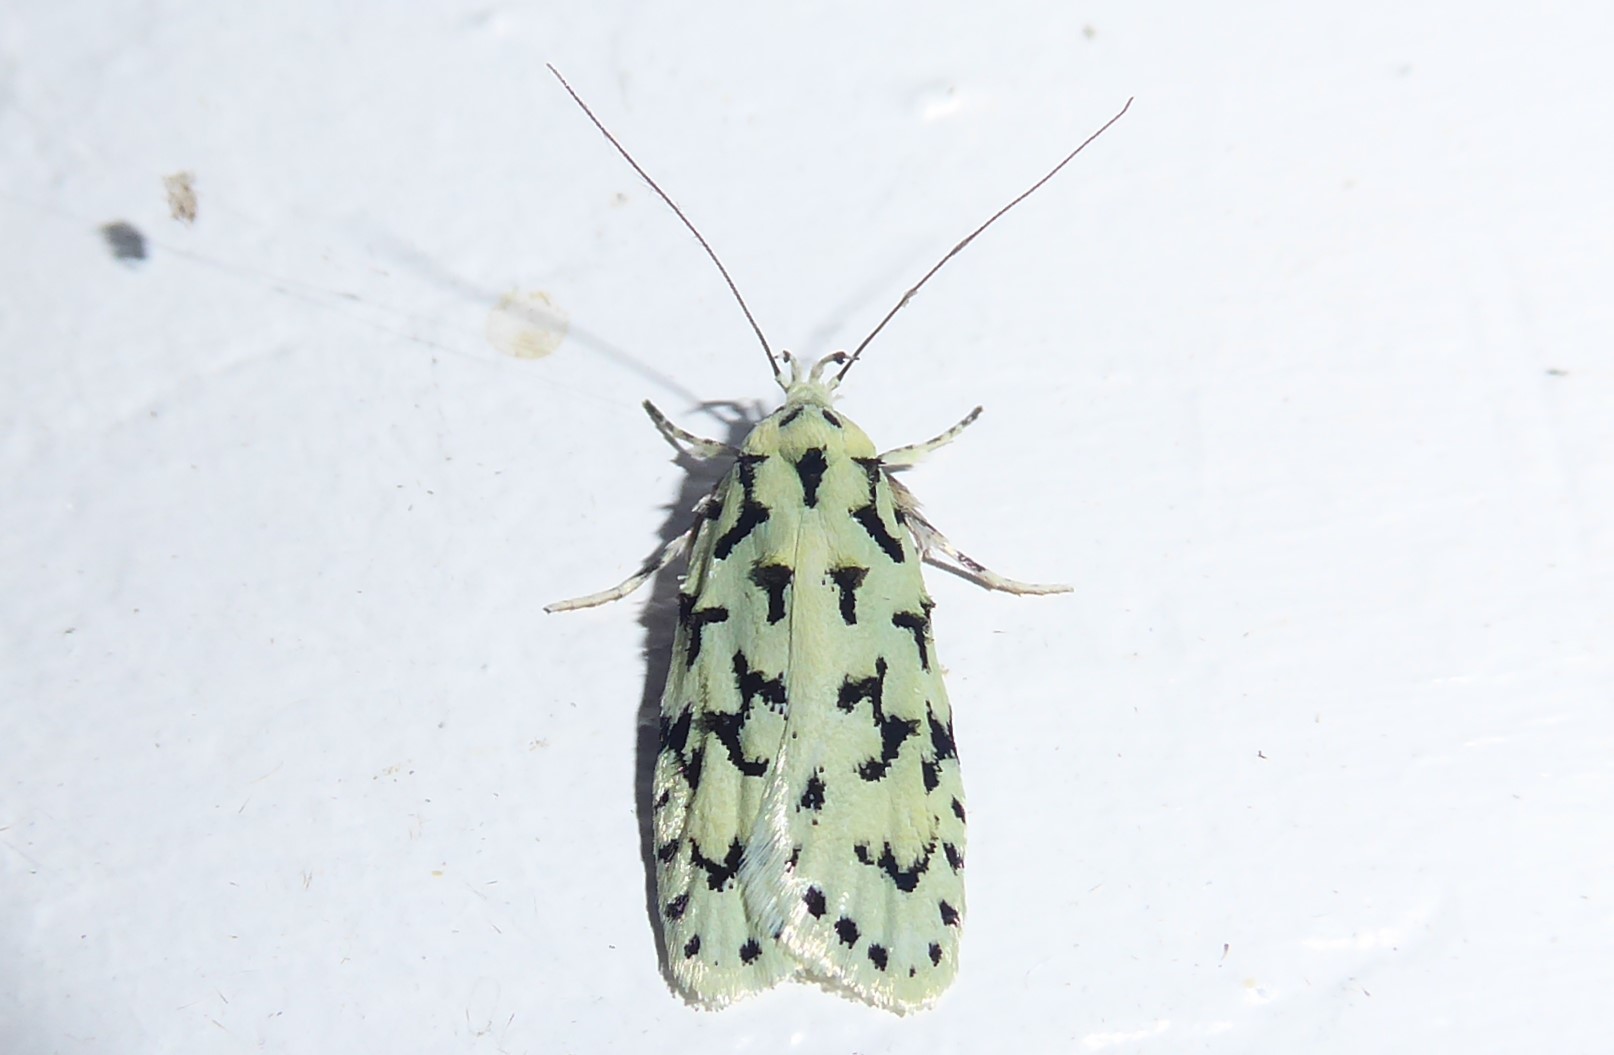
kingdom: Animalia
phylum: Arthropoda
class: Insecta
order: Lepidoptera
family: Oecophoridae
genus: Izatha
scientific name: Izatha huttoni
